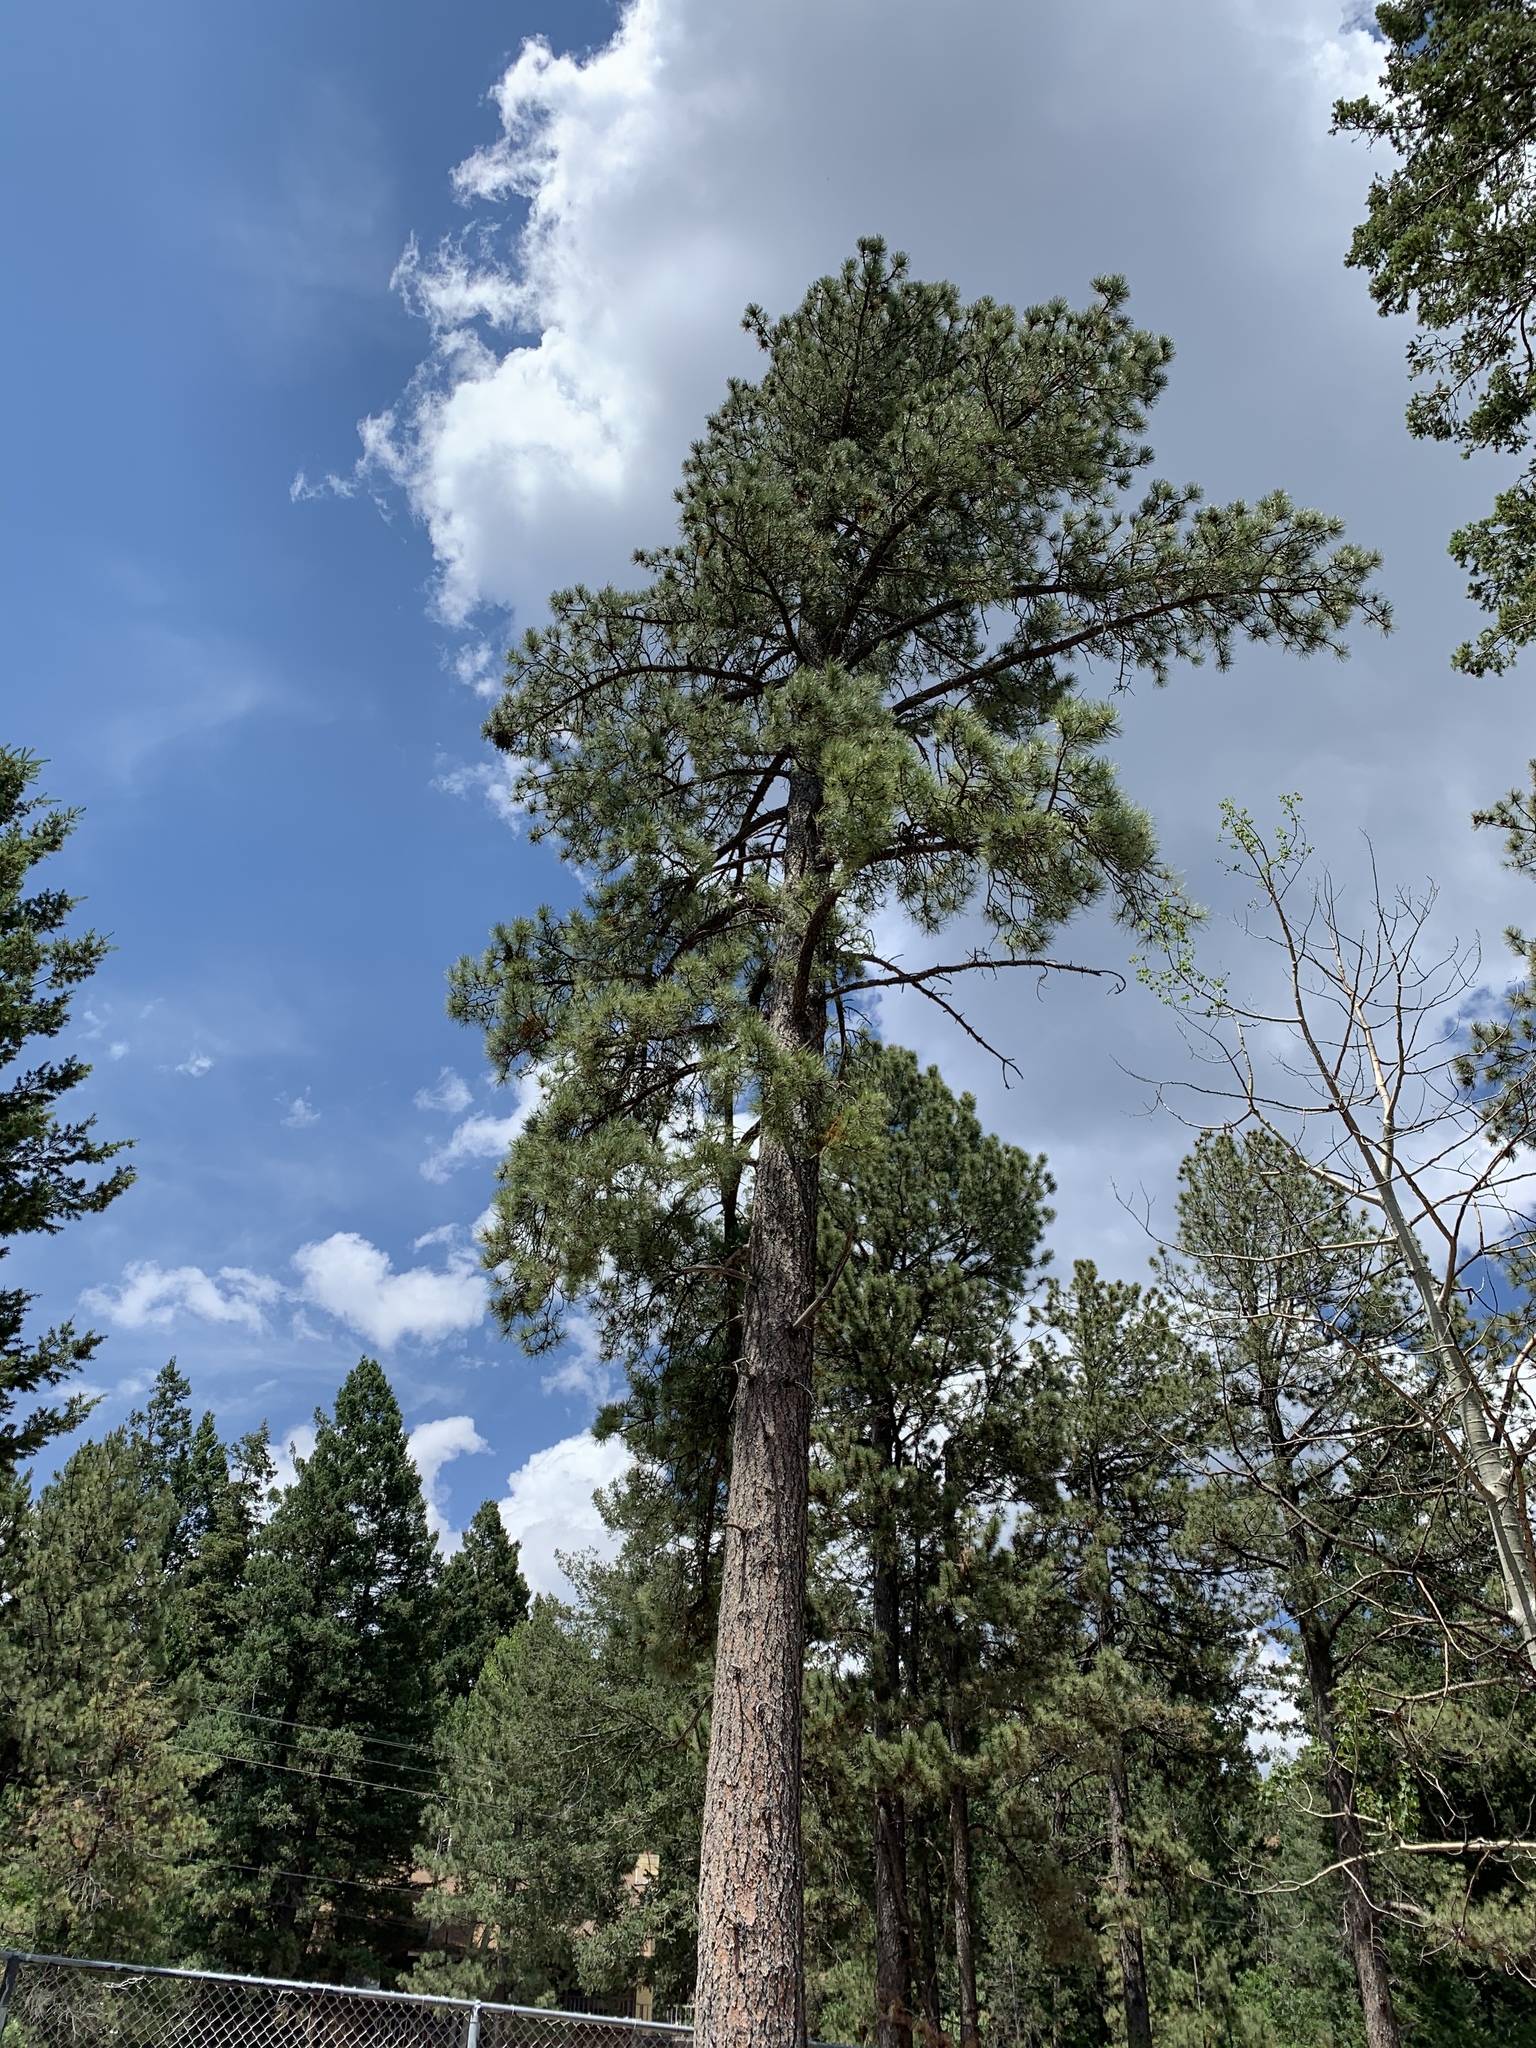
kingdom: Plantae
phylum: Tracheophyta
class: Pinopsida
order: Pinales
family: Pinaceae
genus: Pinus
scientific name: Pinus ponderosa
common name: Western yellow-pine
